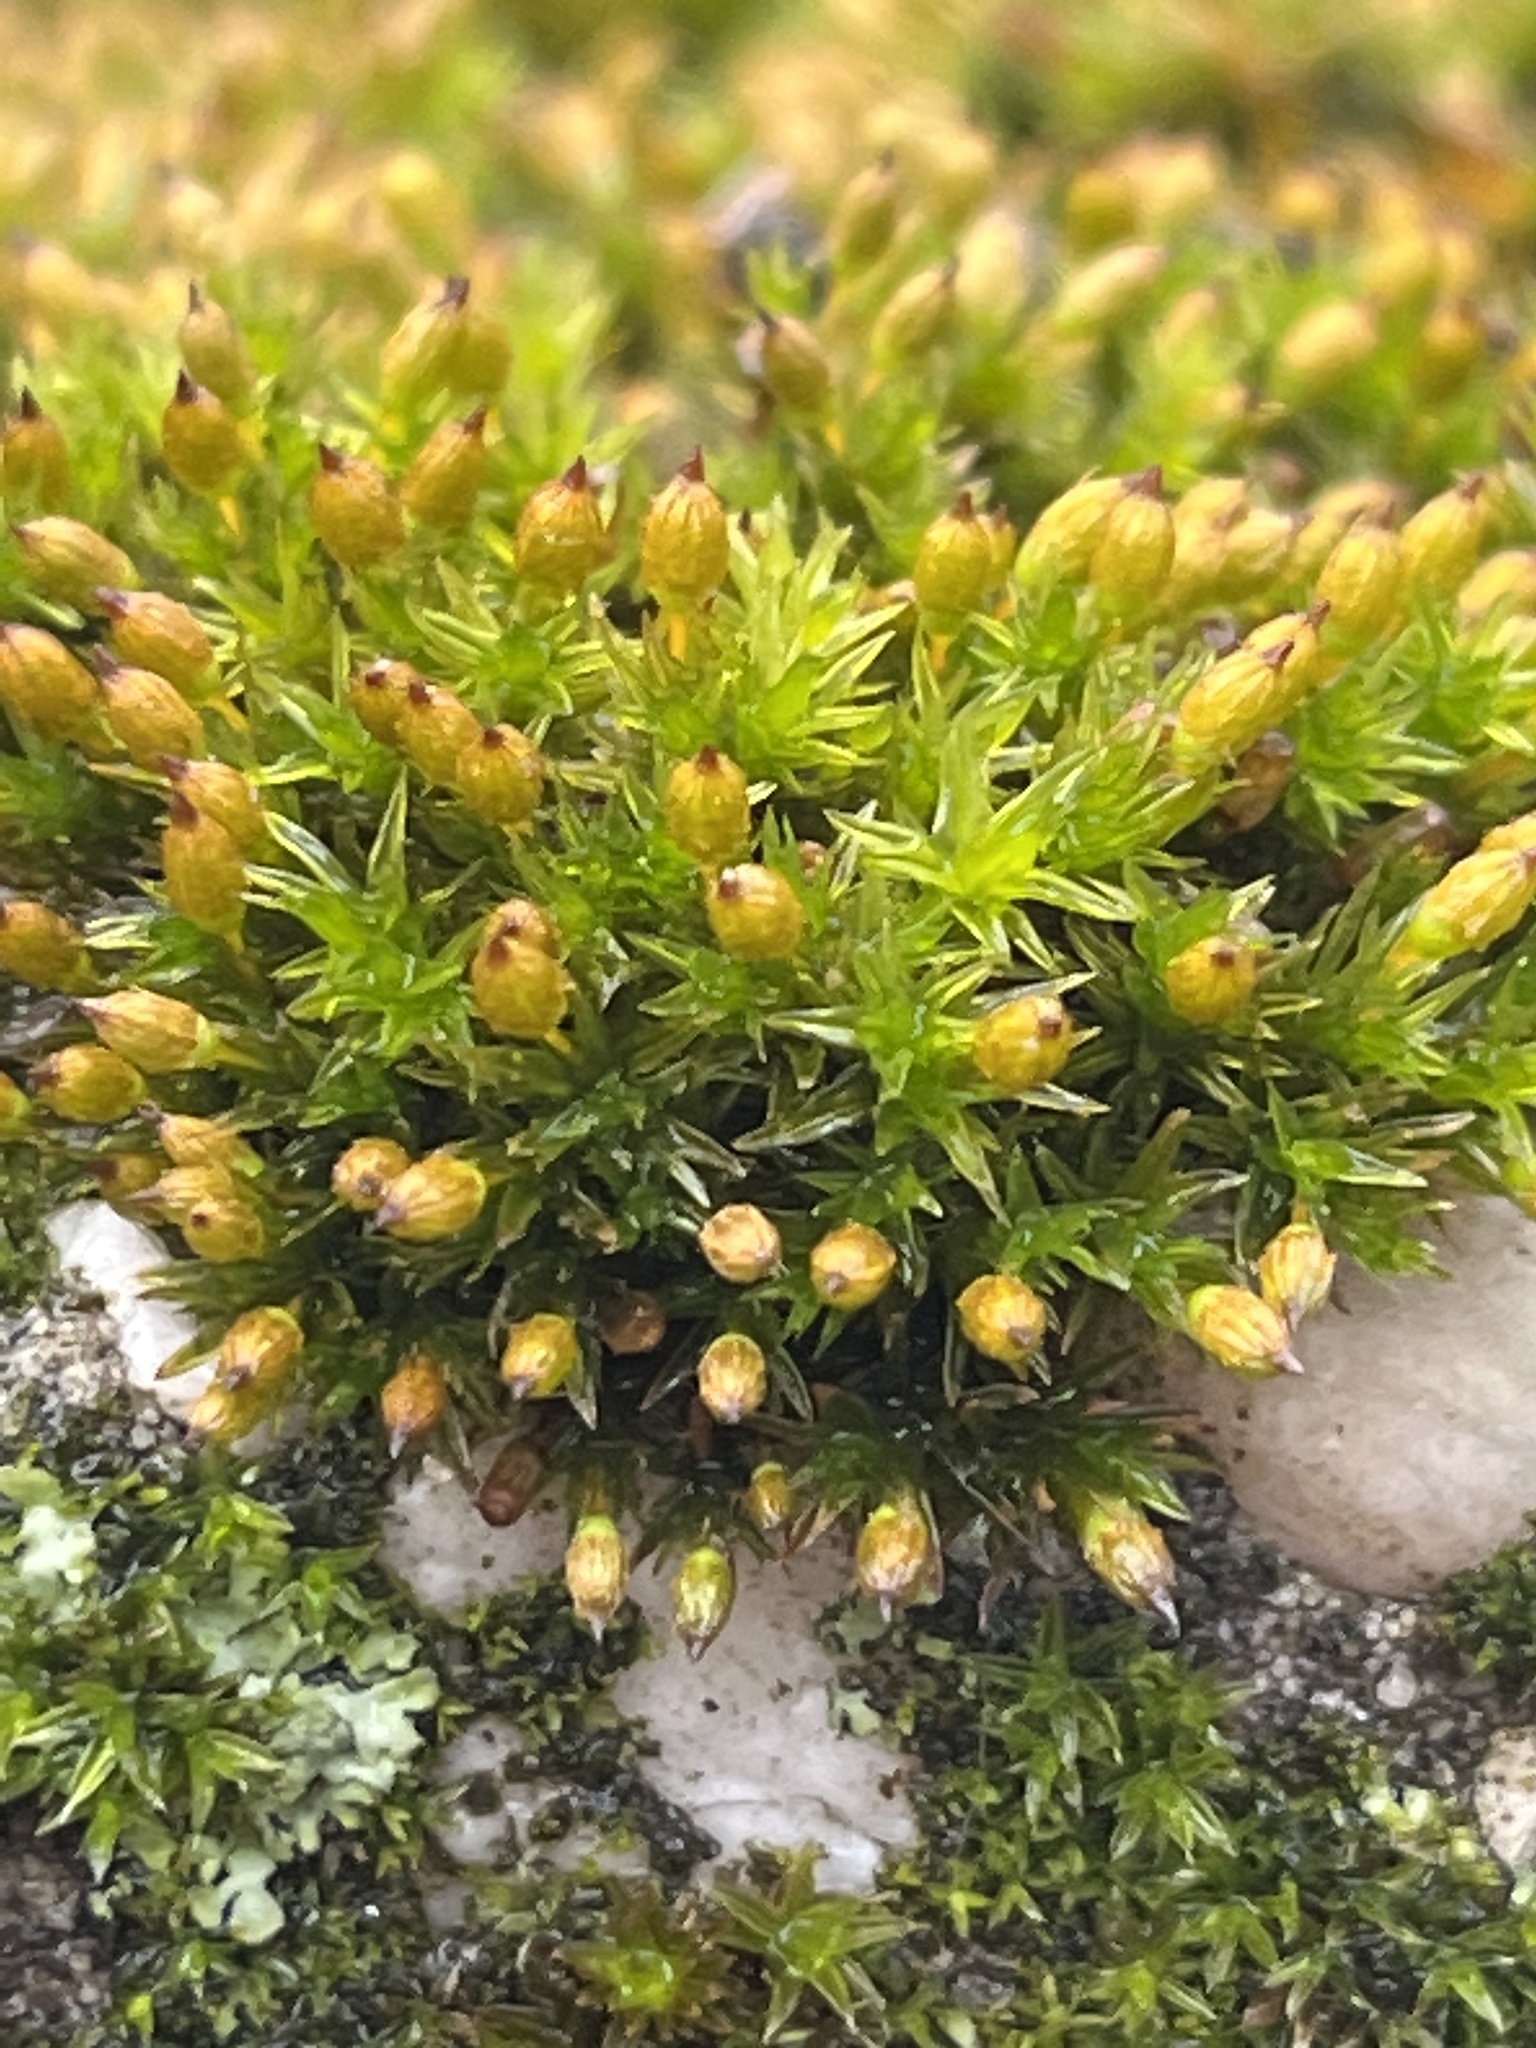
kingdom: Plantae
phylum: Bryophyta
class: Bryopsida
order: Orthotrichales
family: Orthotrichaceae
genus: Orthotrichum
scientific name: Orthotrichum anomalum
